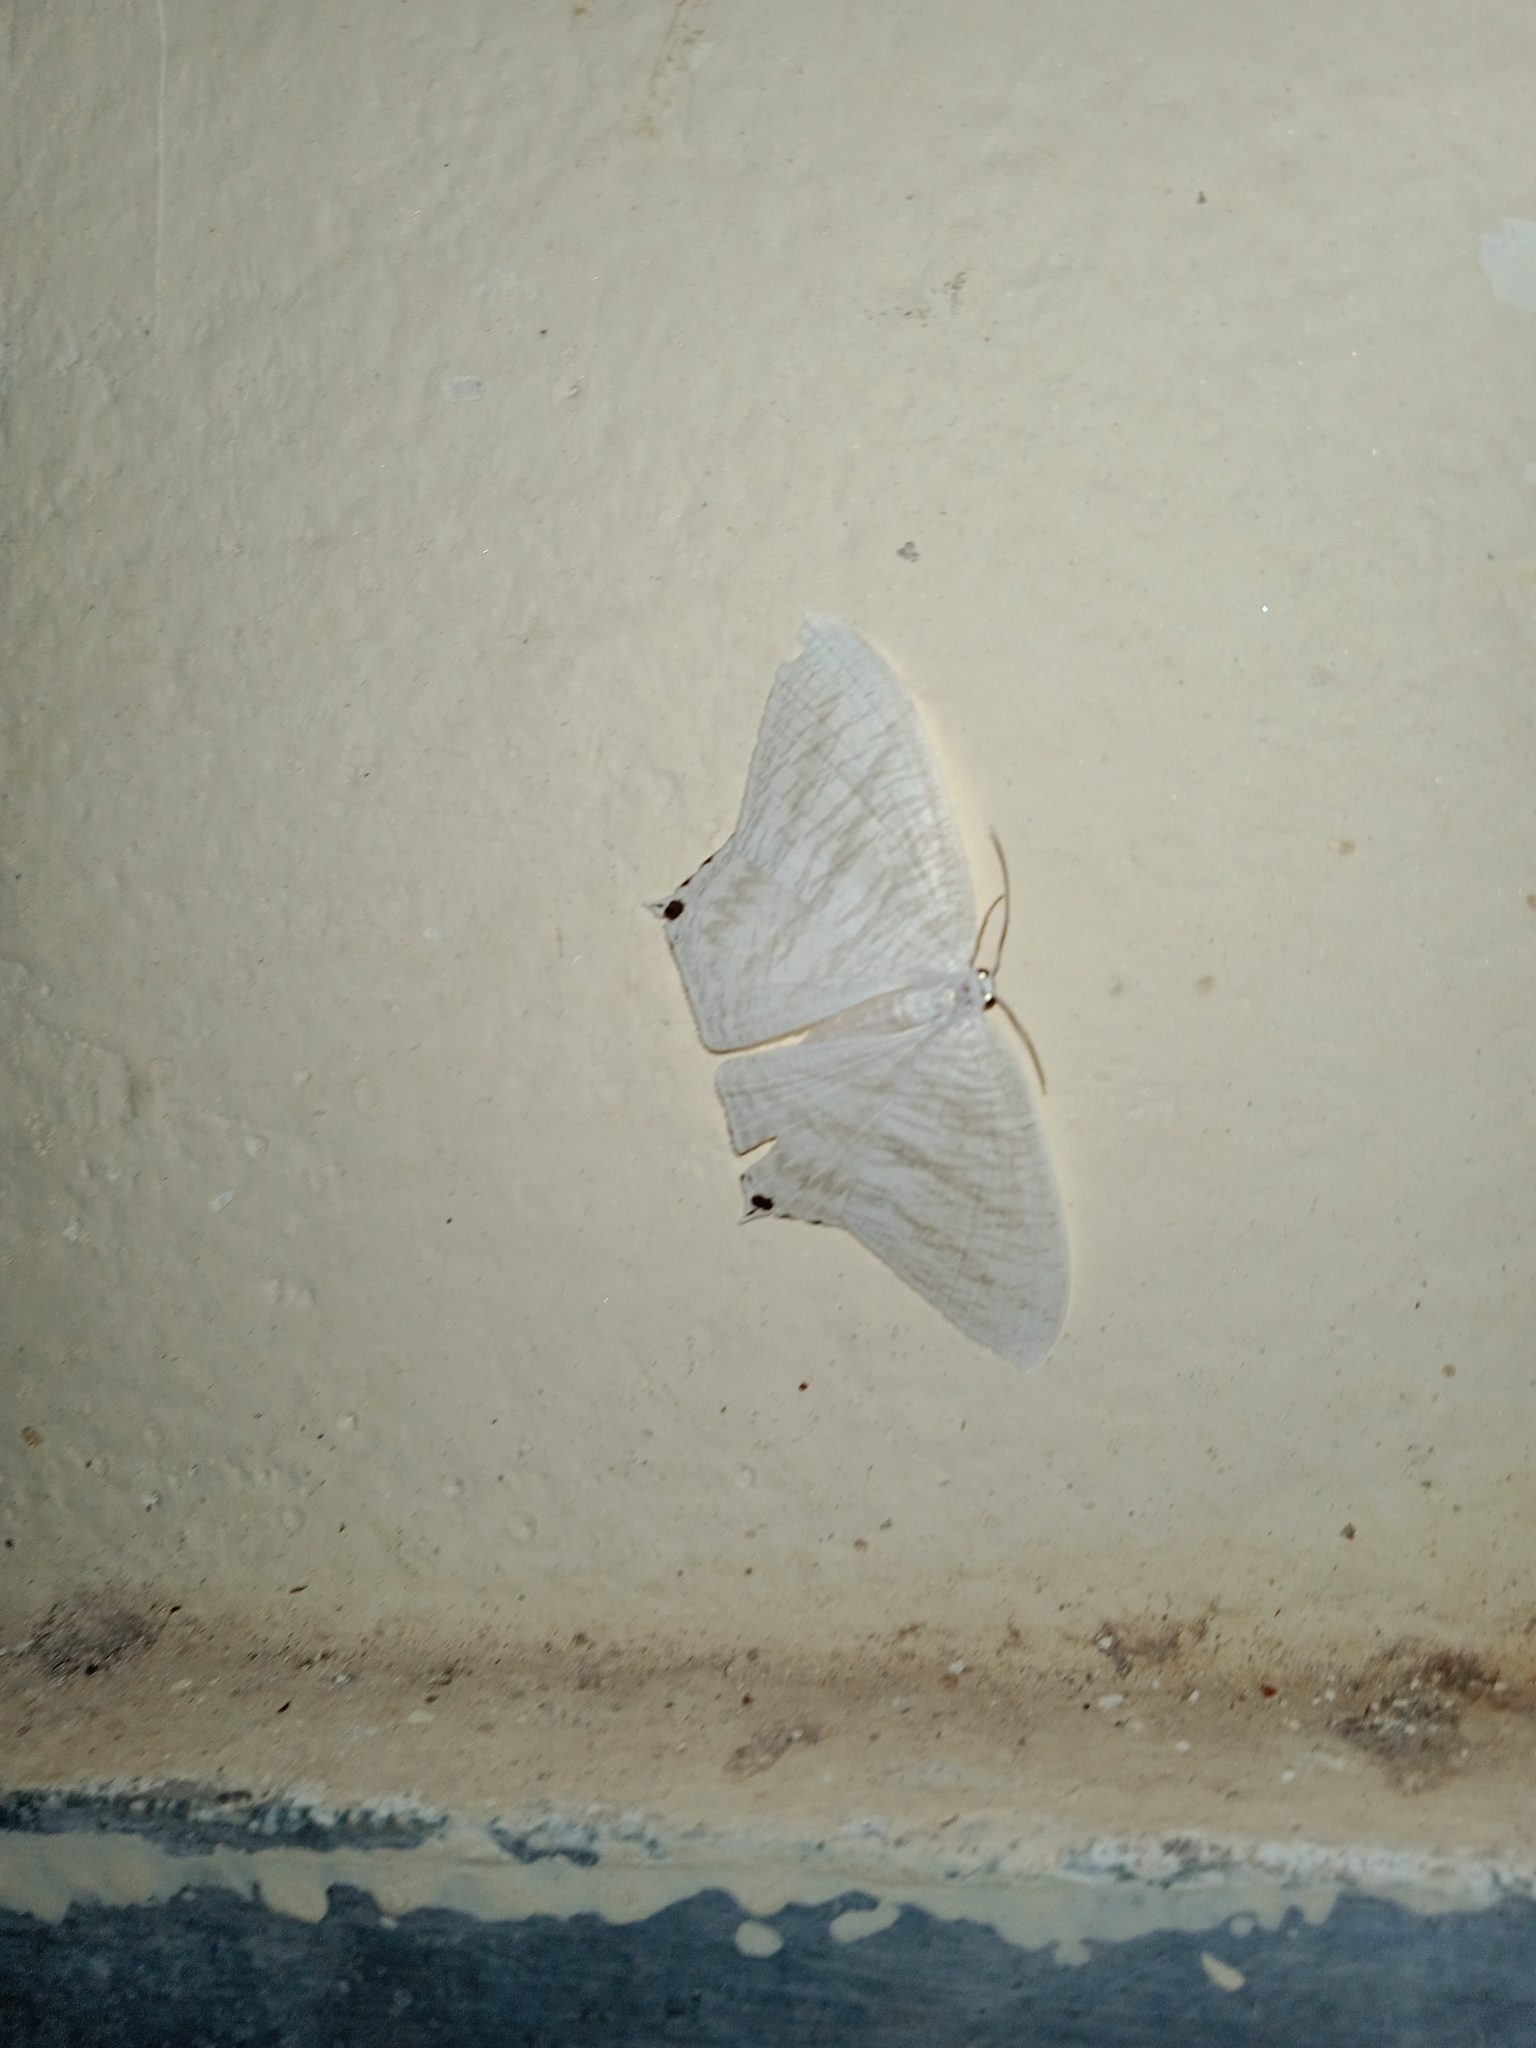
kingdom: Animalia
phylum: Arthropoda
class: Insecta
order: Lepidoptera
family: Uraniidae
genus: Micronia
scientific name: Micronia aculeata
